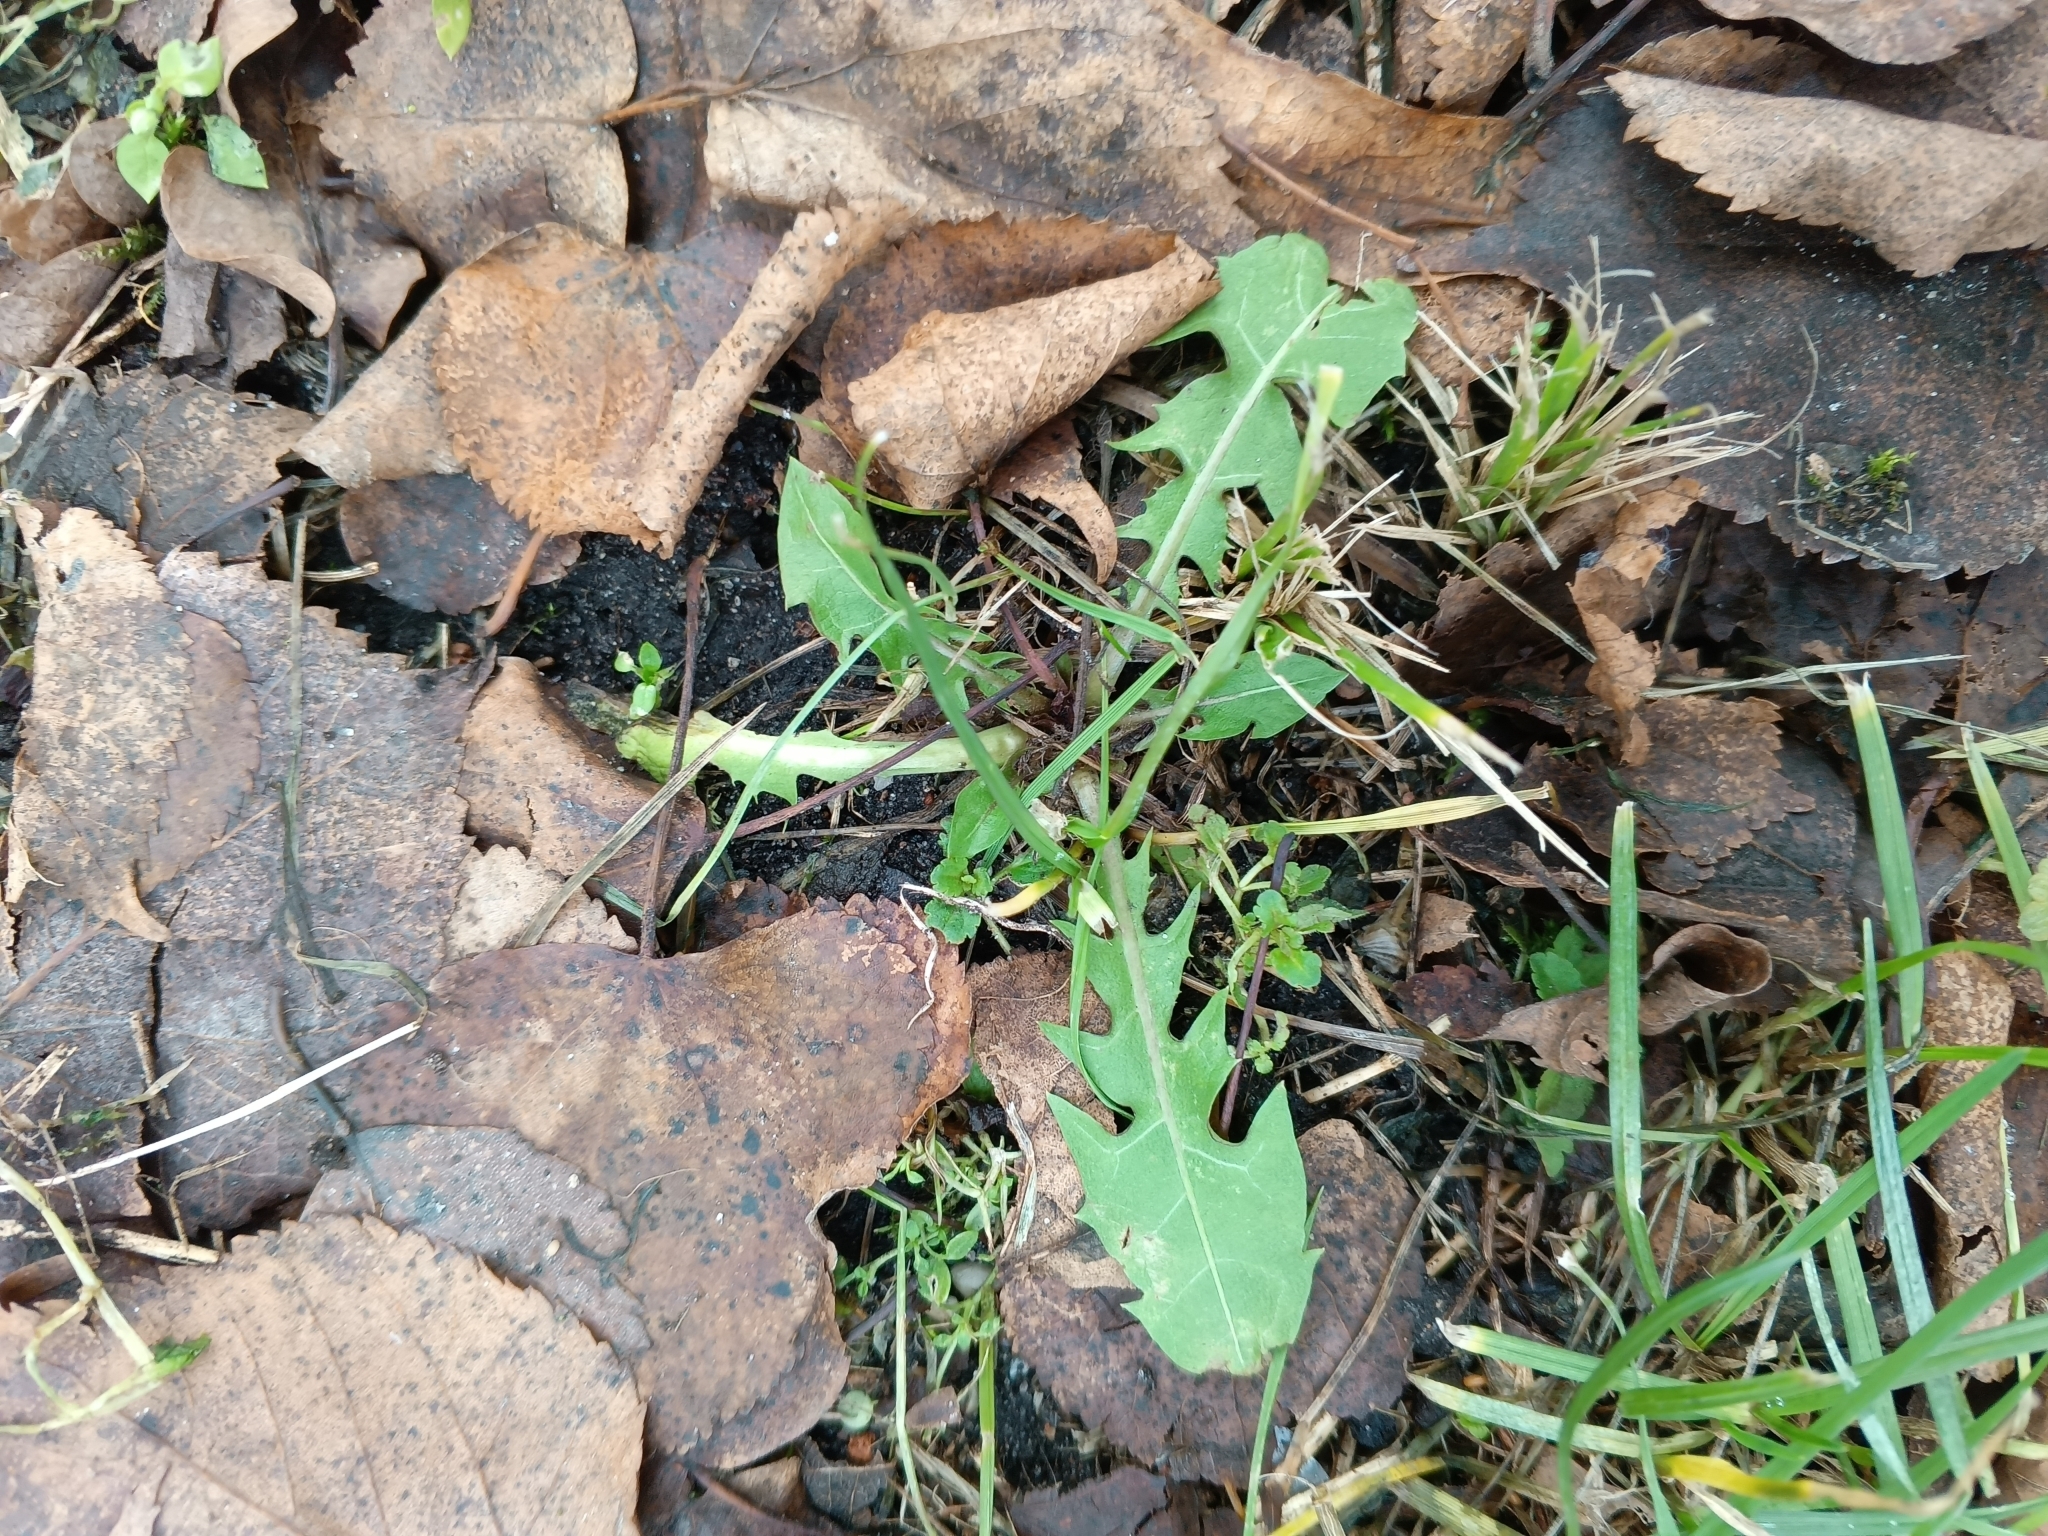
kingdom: Plantae
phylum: Tracheophyta
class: Magnoliopsida
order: Asterales
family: Asteraceae
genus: Taraxacum
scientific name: Taraxacum officinale
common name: Common dandelion
